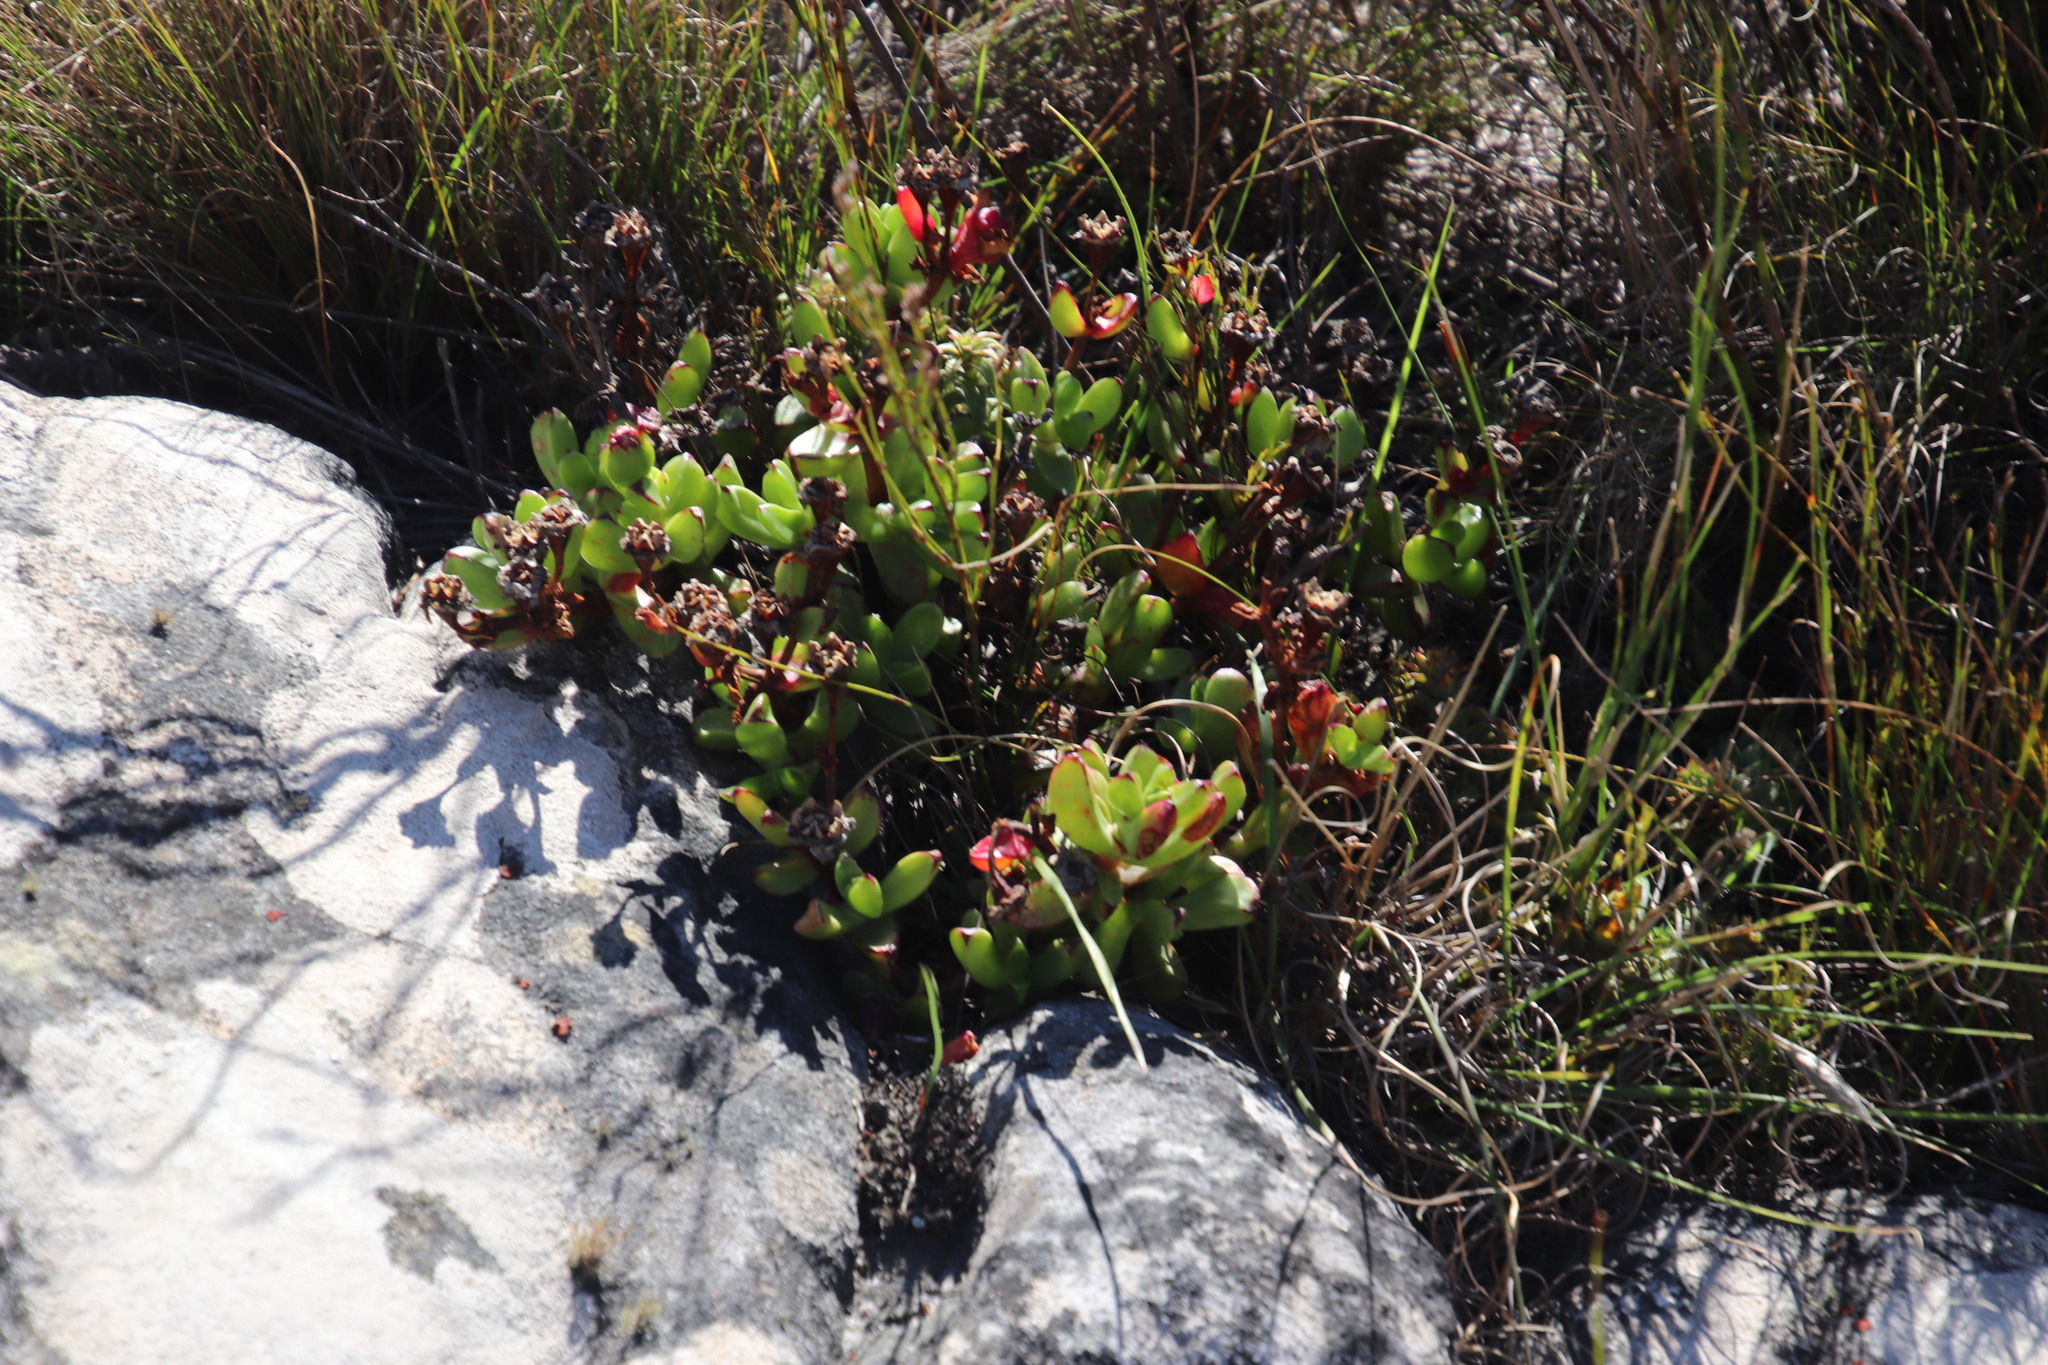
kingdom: Plantae
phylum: Tracheophyta
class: Magnoliopsida
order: Caryophyllales
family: Aizoaceae
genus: Erepsia
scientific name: Erepsia inclaudens
